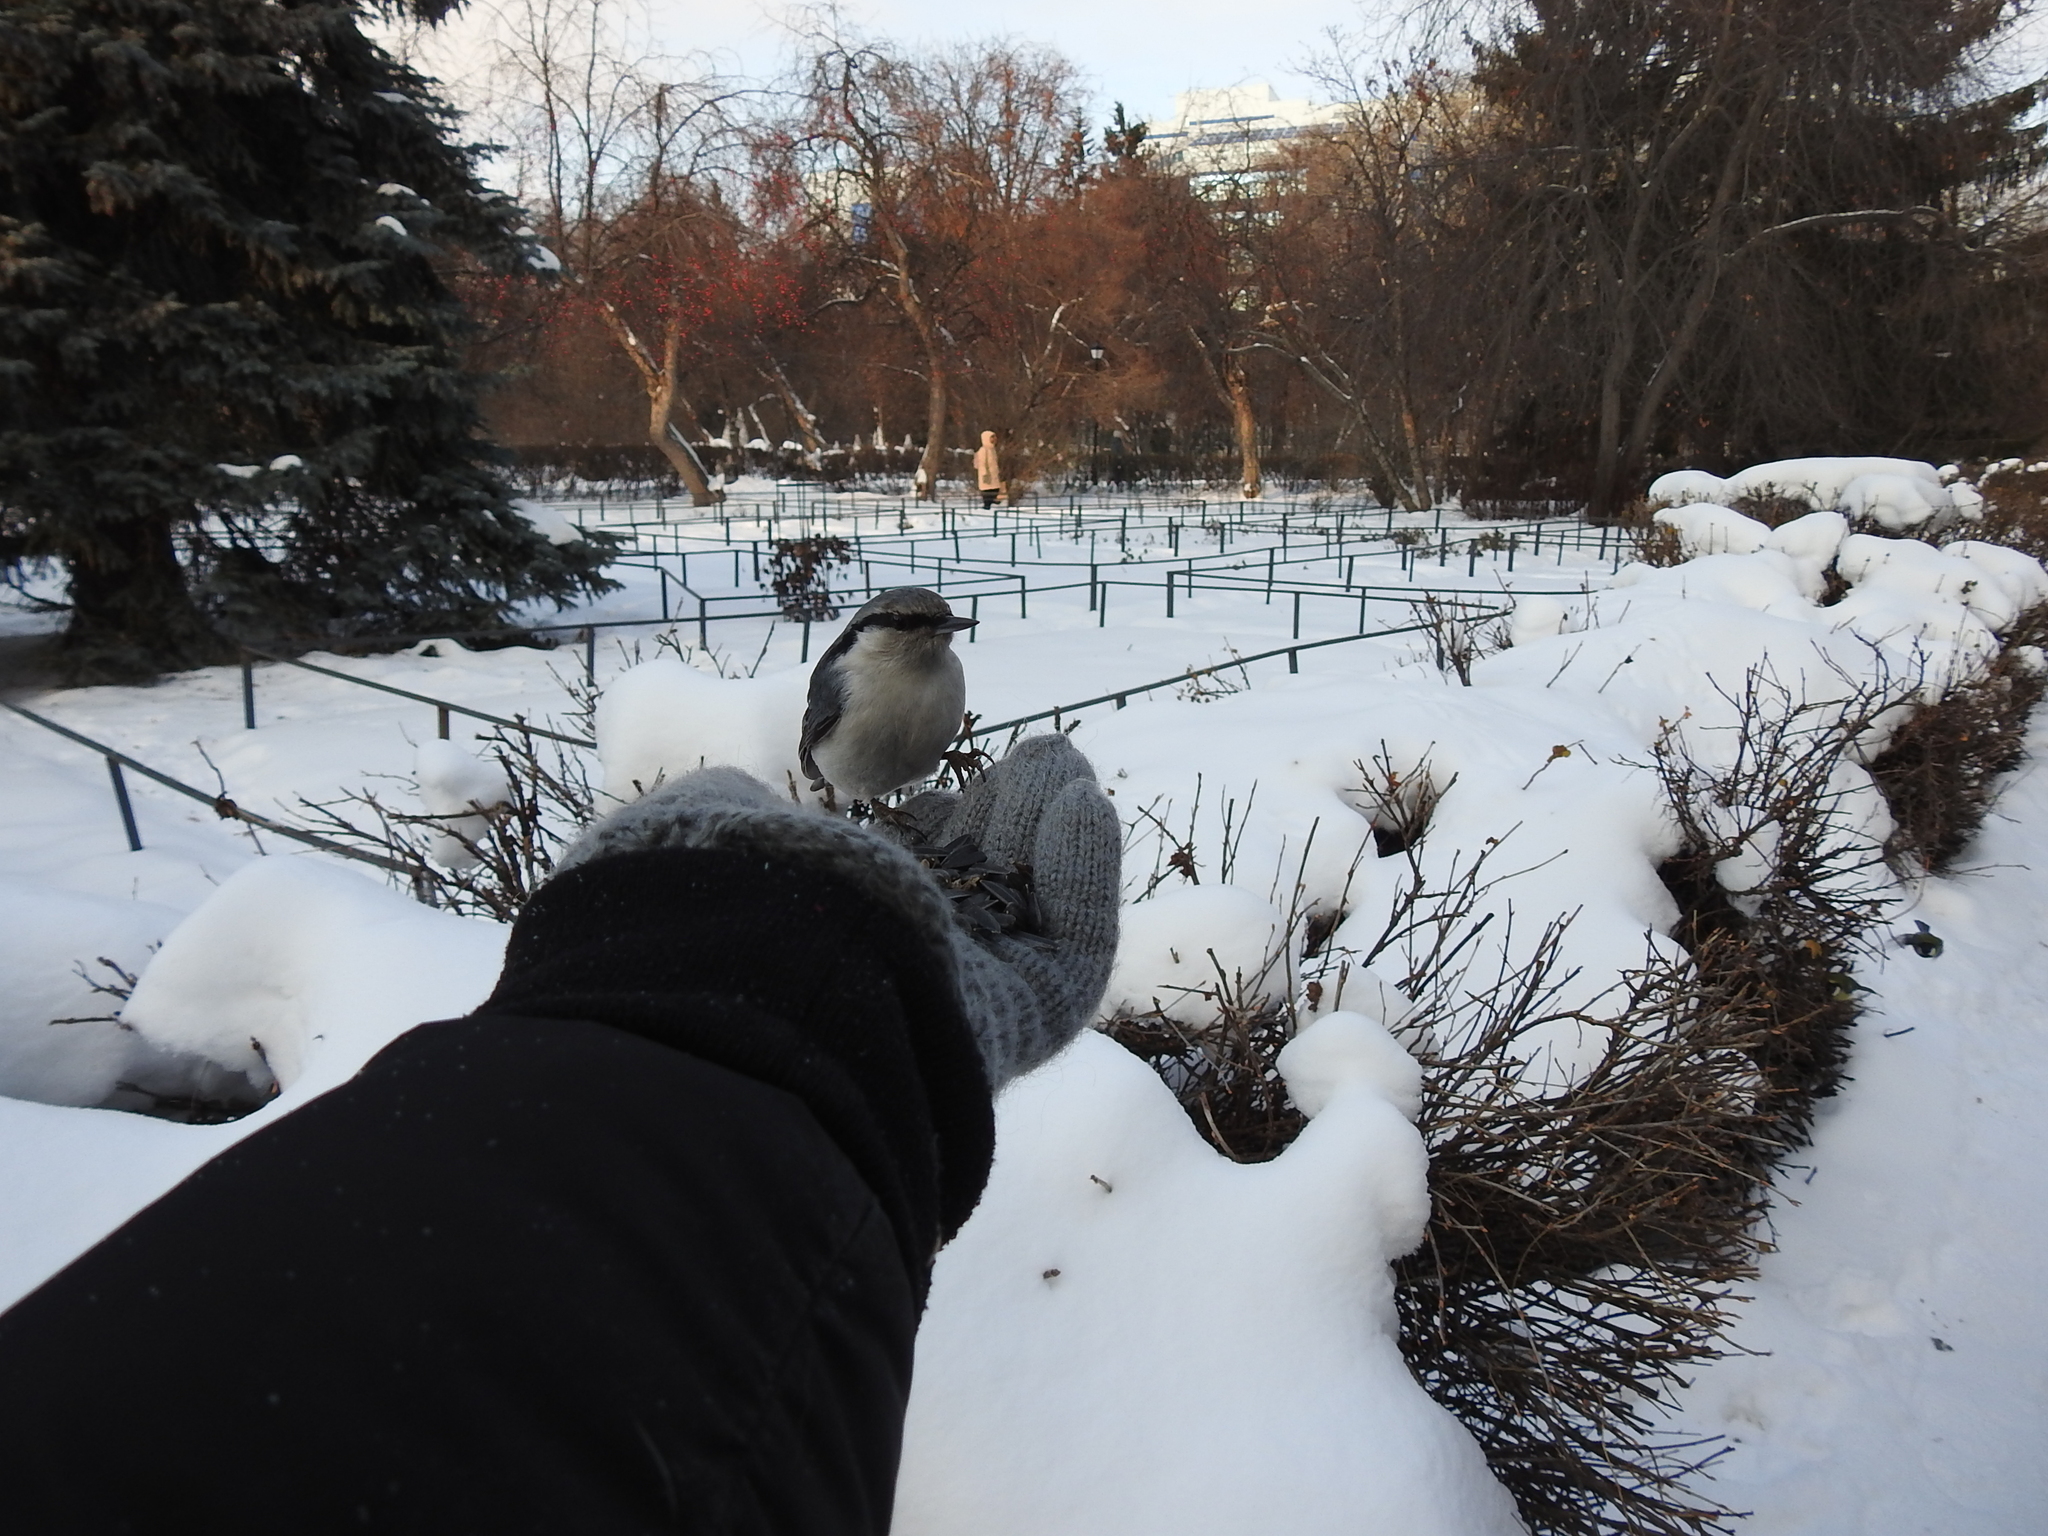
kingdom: Animalia
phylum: Chordata
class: Aves
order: Passeriformes
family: Sittidae
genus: Sitta
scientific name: Sitta europaea
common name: Eurasian nuthatch
